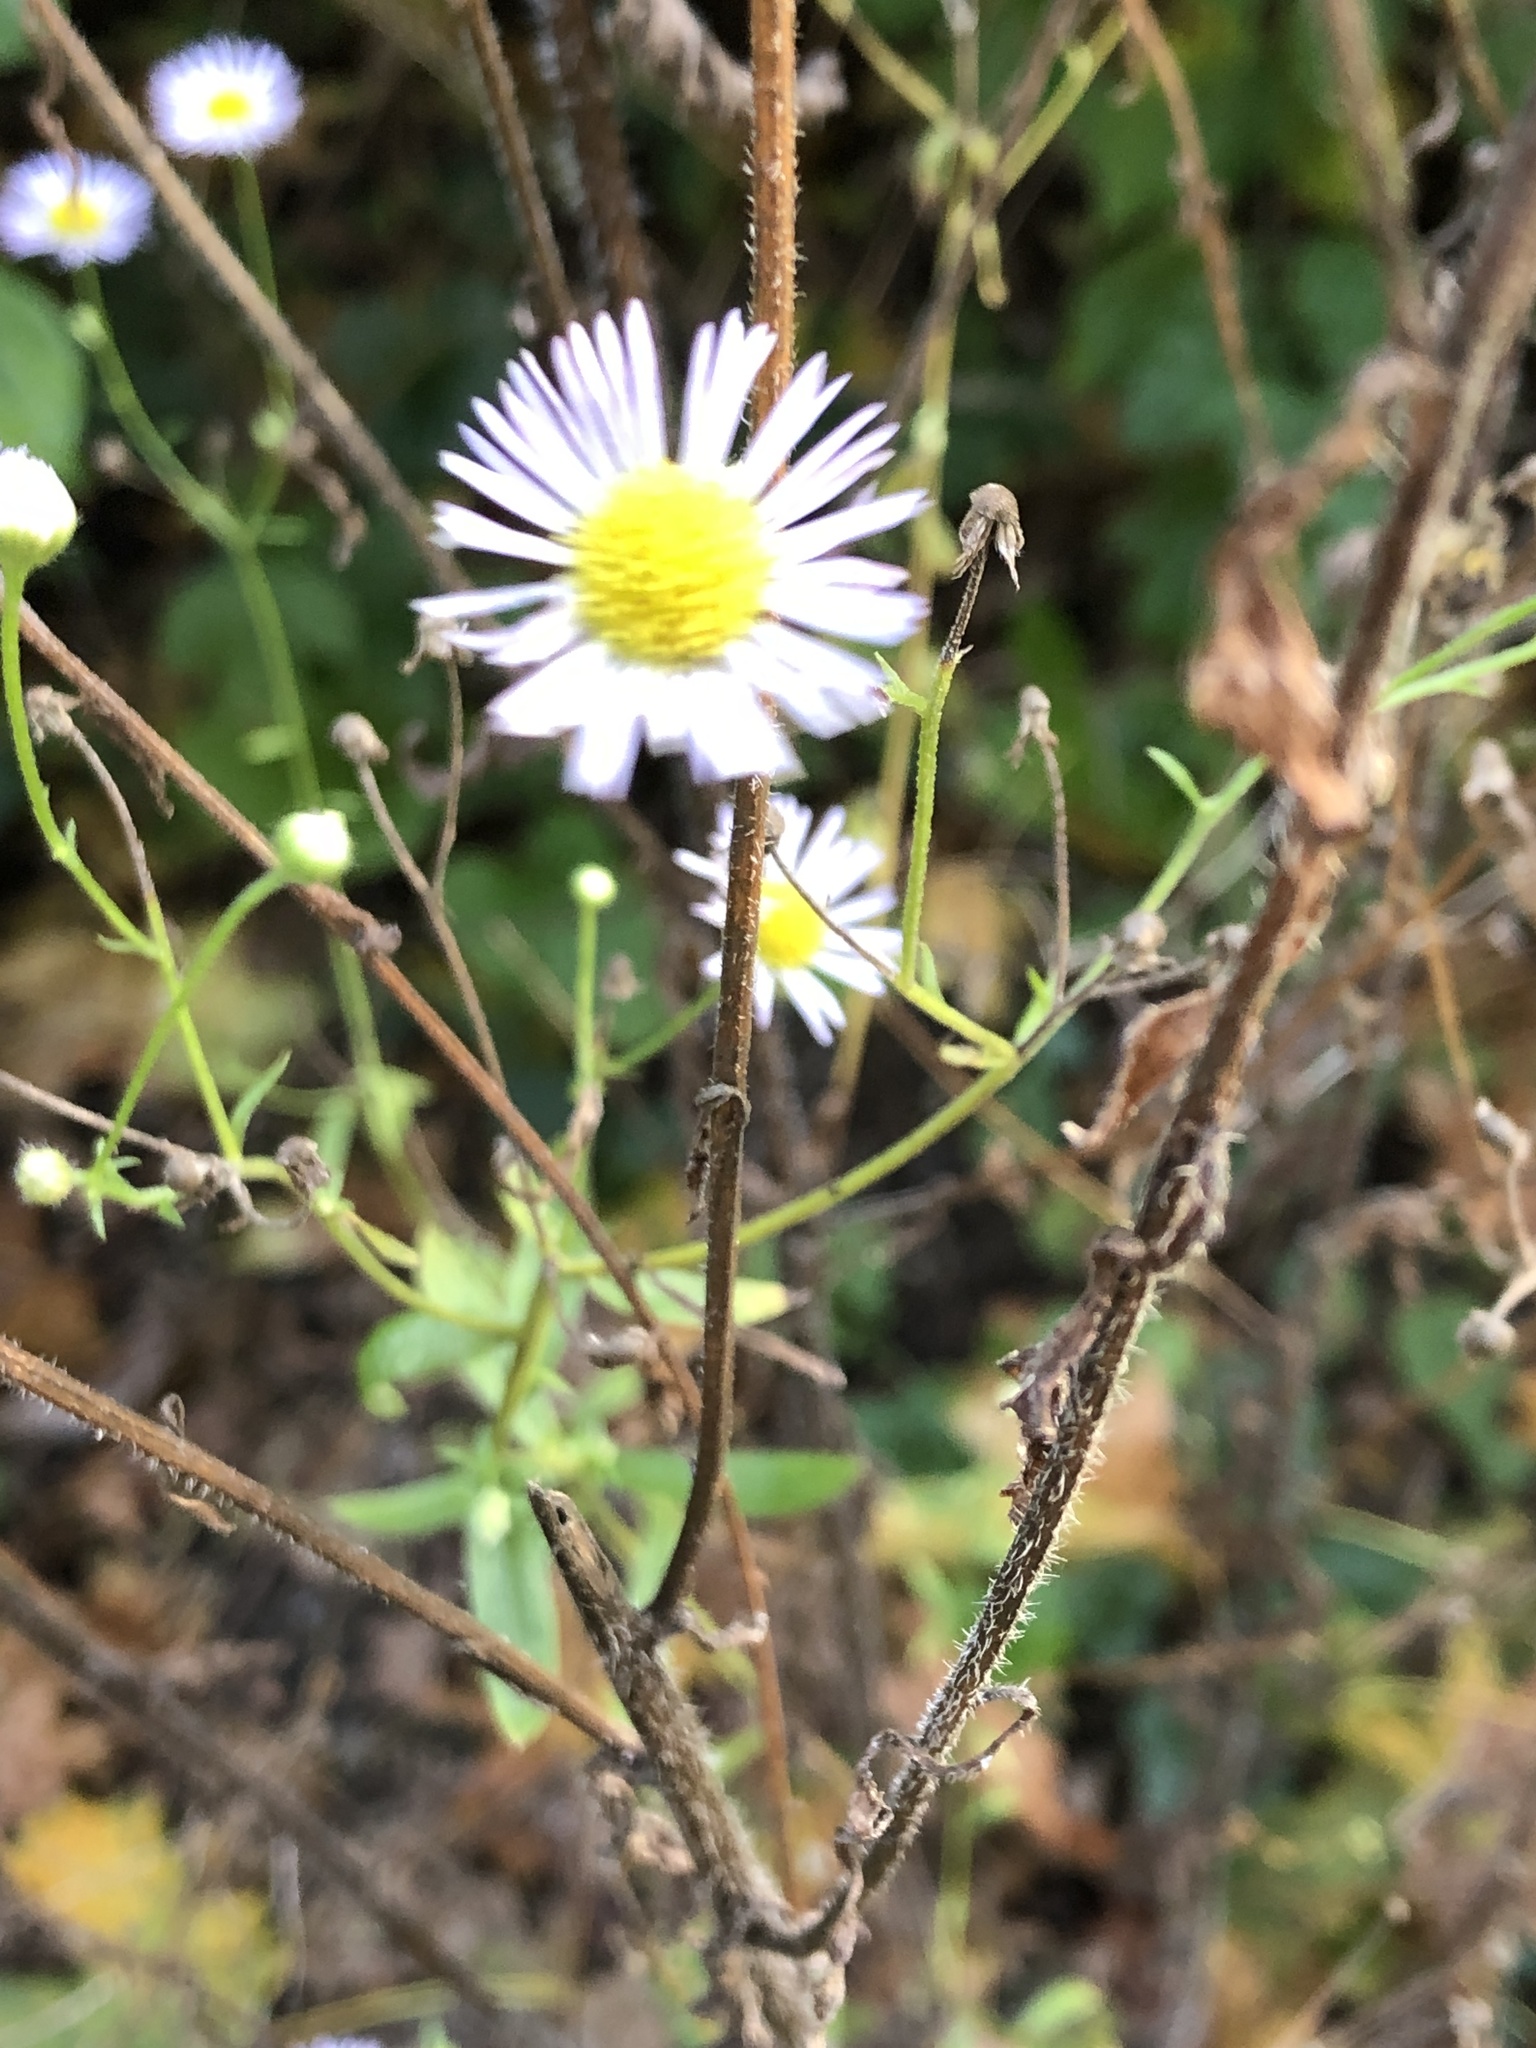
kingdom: Plantae
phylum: Tracheophyta
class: Magnoliopsida
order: Asterales
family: Asteraceae
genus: Erigeron
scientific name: Erigeron annuus
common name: Tall fleabane
